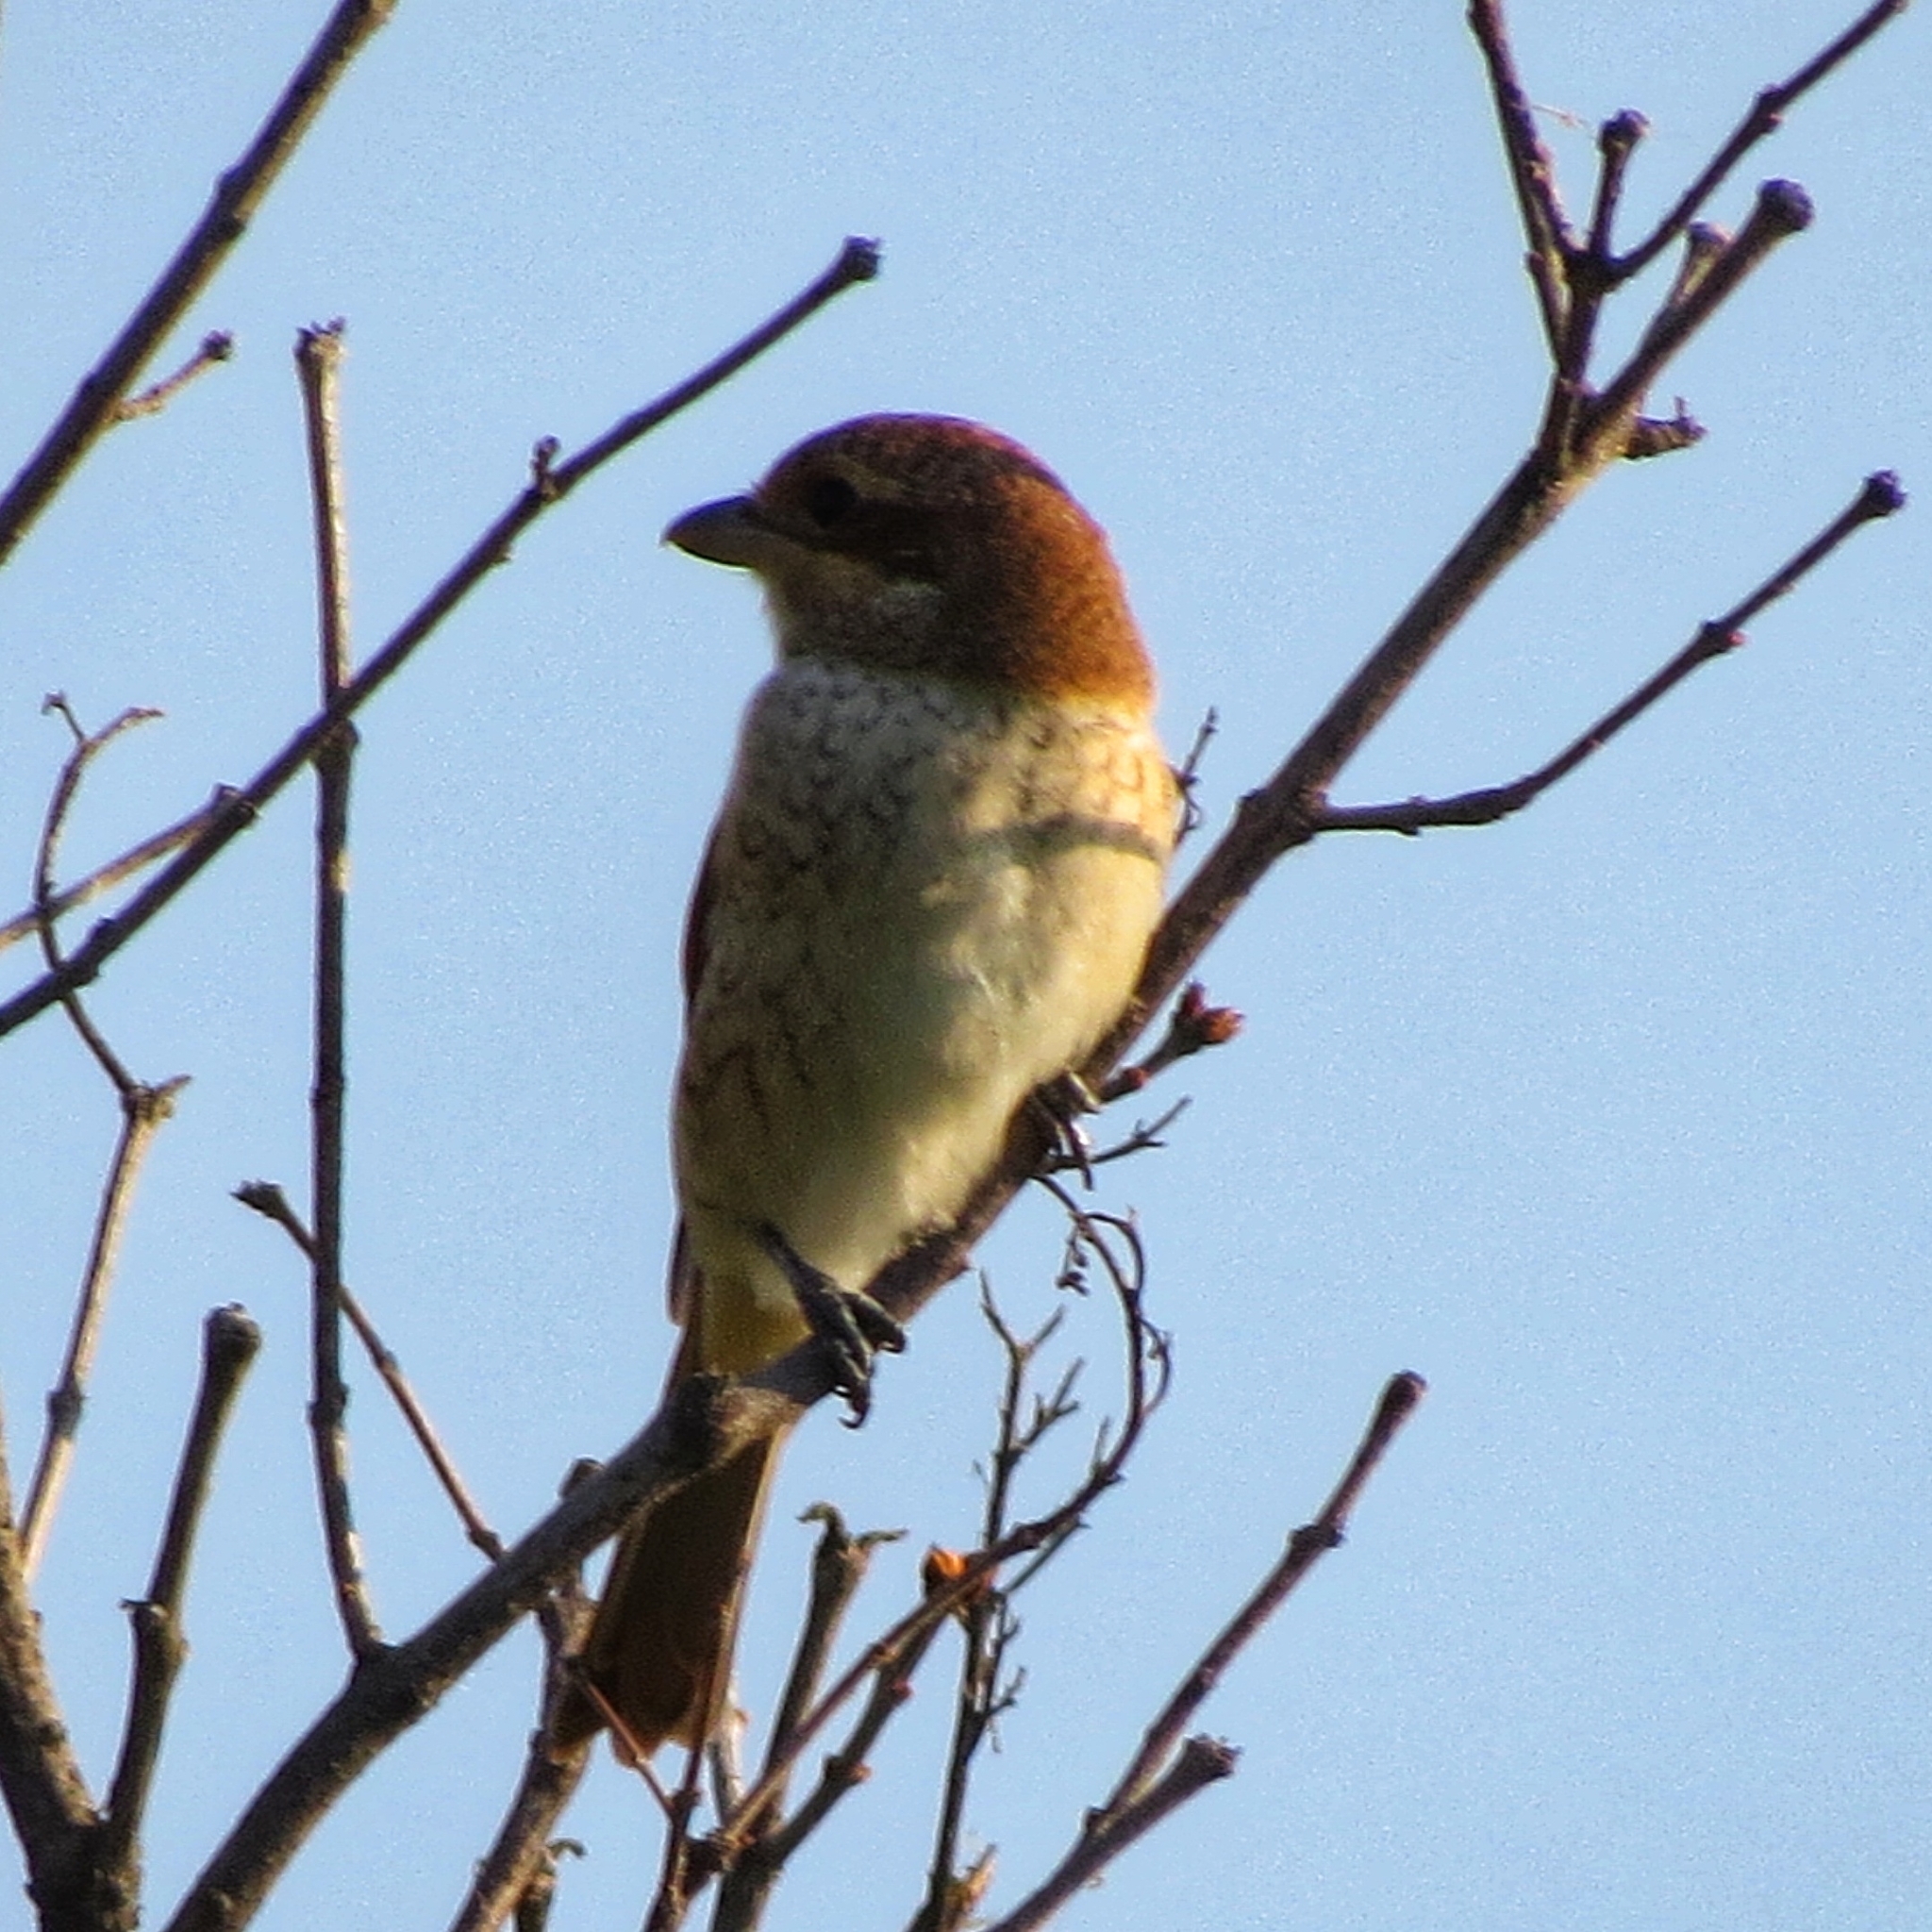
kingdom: Animalia
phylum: Chordata
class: Aves
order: Passeriformes
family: Laniidae
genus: Lanius
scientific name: Lanius collurio
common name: Red-backed shrike
